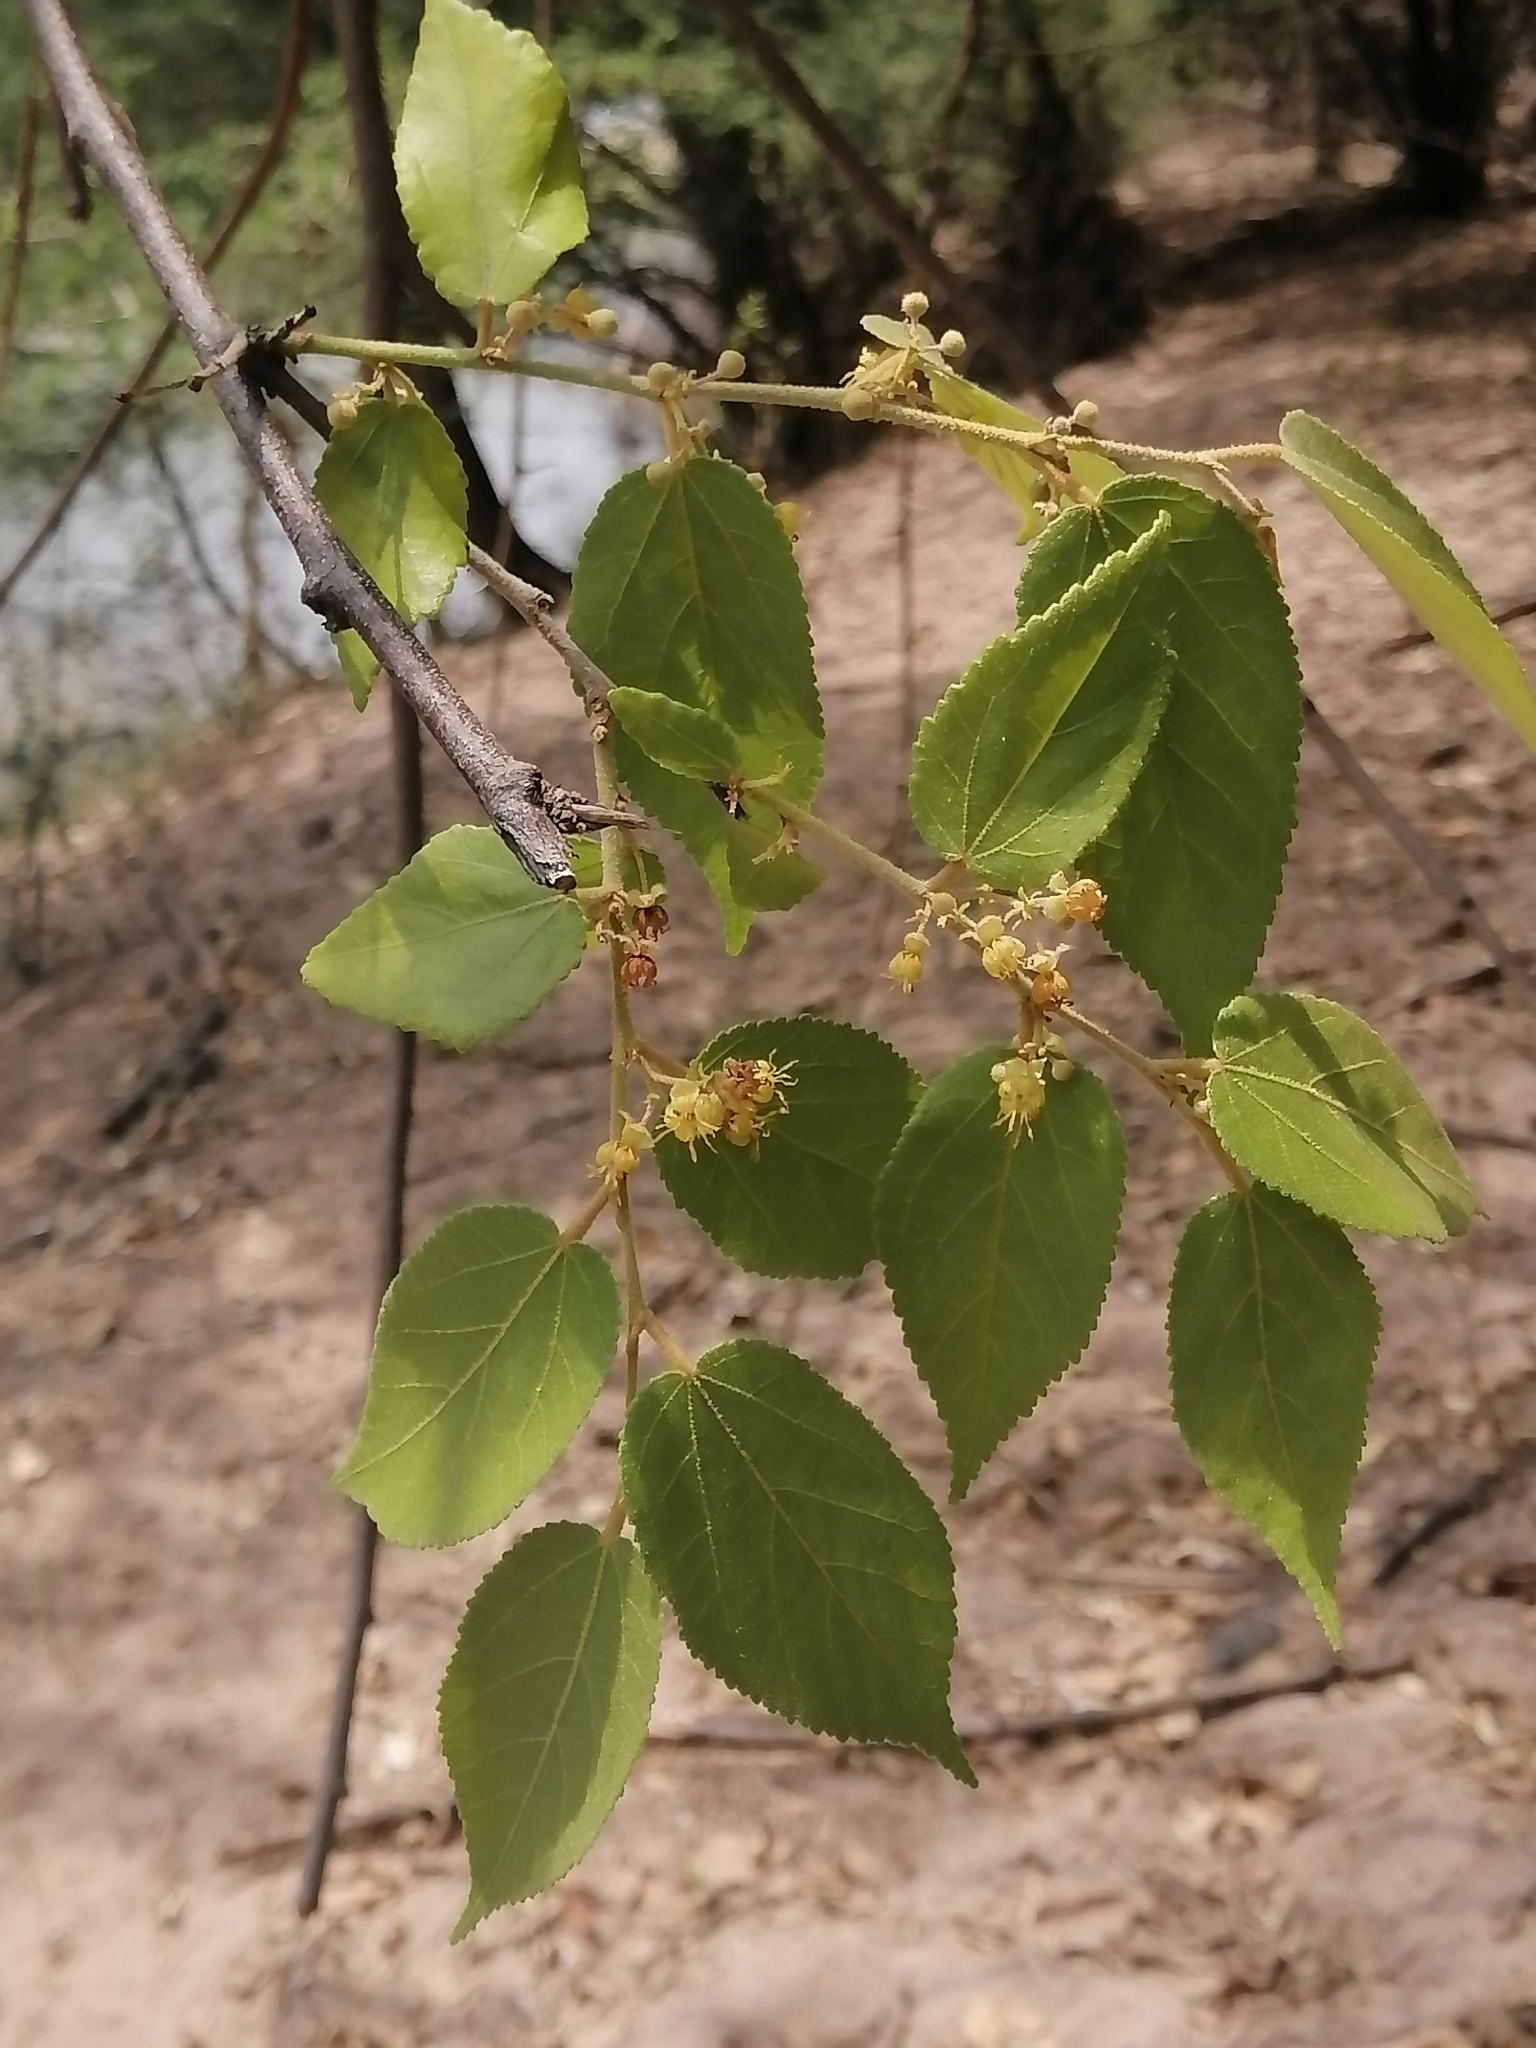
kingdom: Plantae
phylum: Tracheophyta
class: Magnoliopsida
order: Malvales
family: Malvaceae
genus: Guazuma
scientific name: Guazuma ulmifolia
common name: Bastard-cedar
